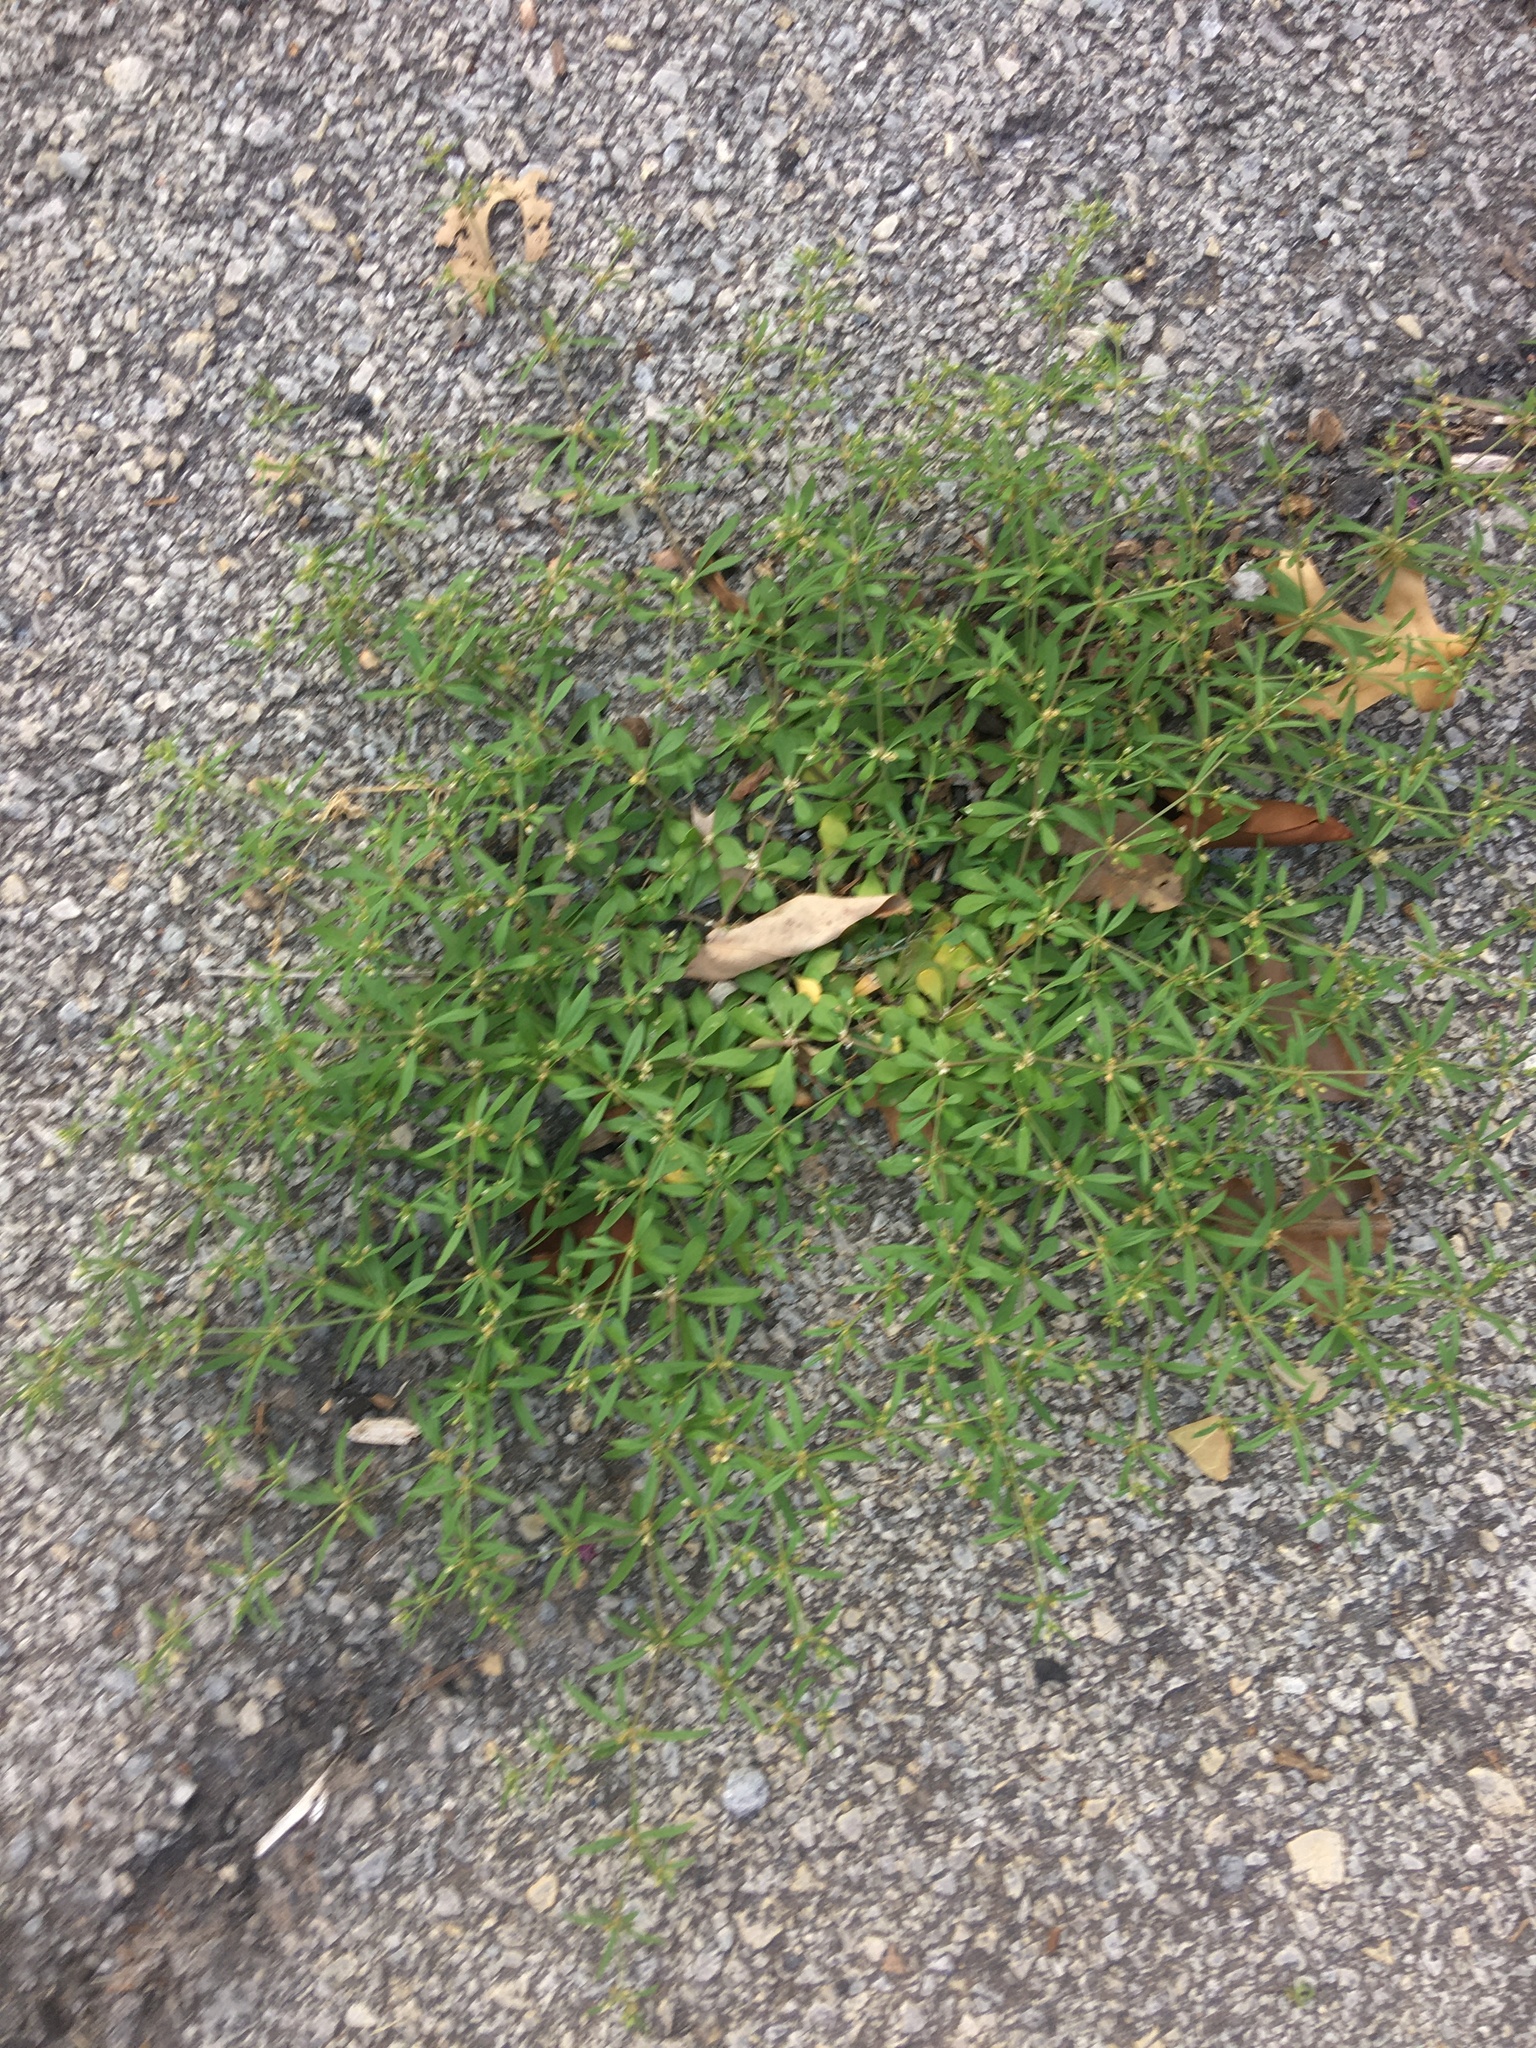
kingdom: Plantae
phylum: Tracheophyta
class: Magnoliopsida
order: Caryophyllales
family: Molluginaceae
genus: Mollugo
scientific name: Mollugo verticillata
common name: Green carpetweed
